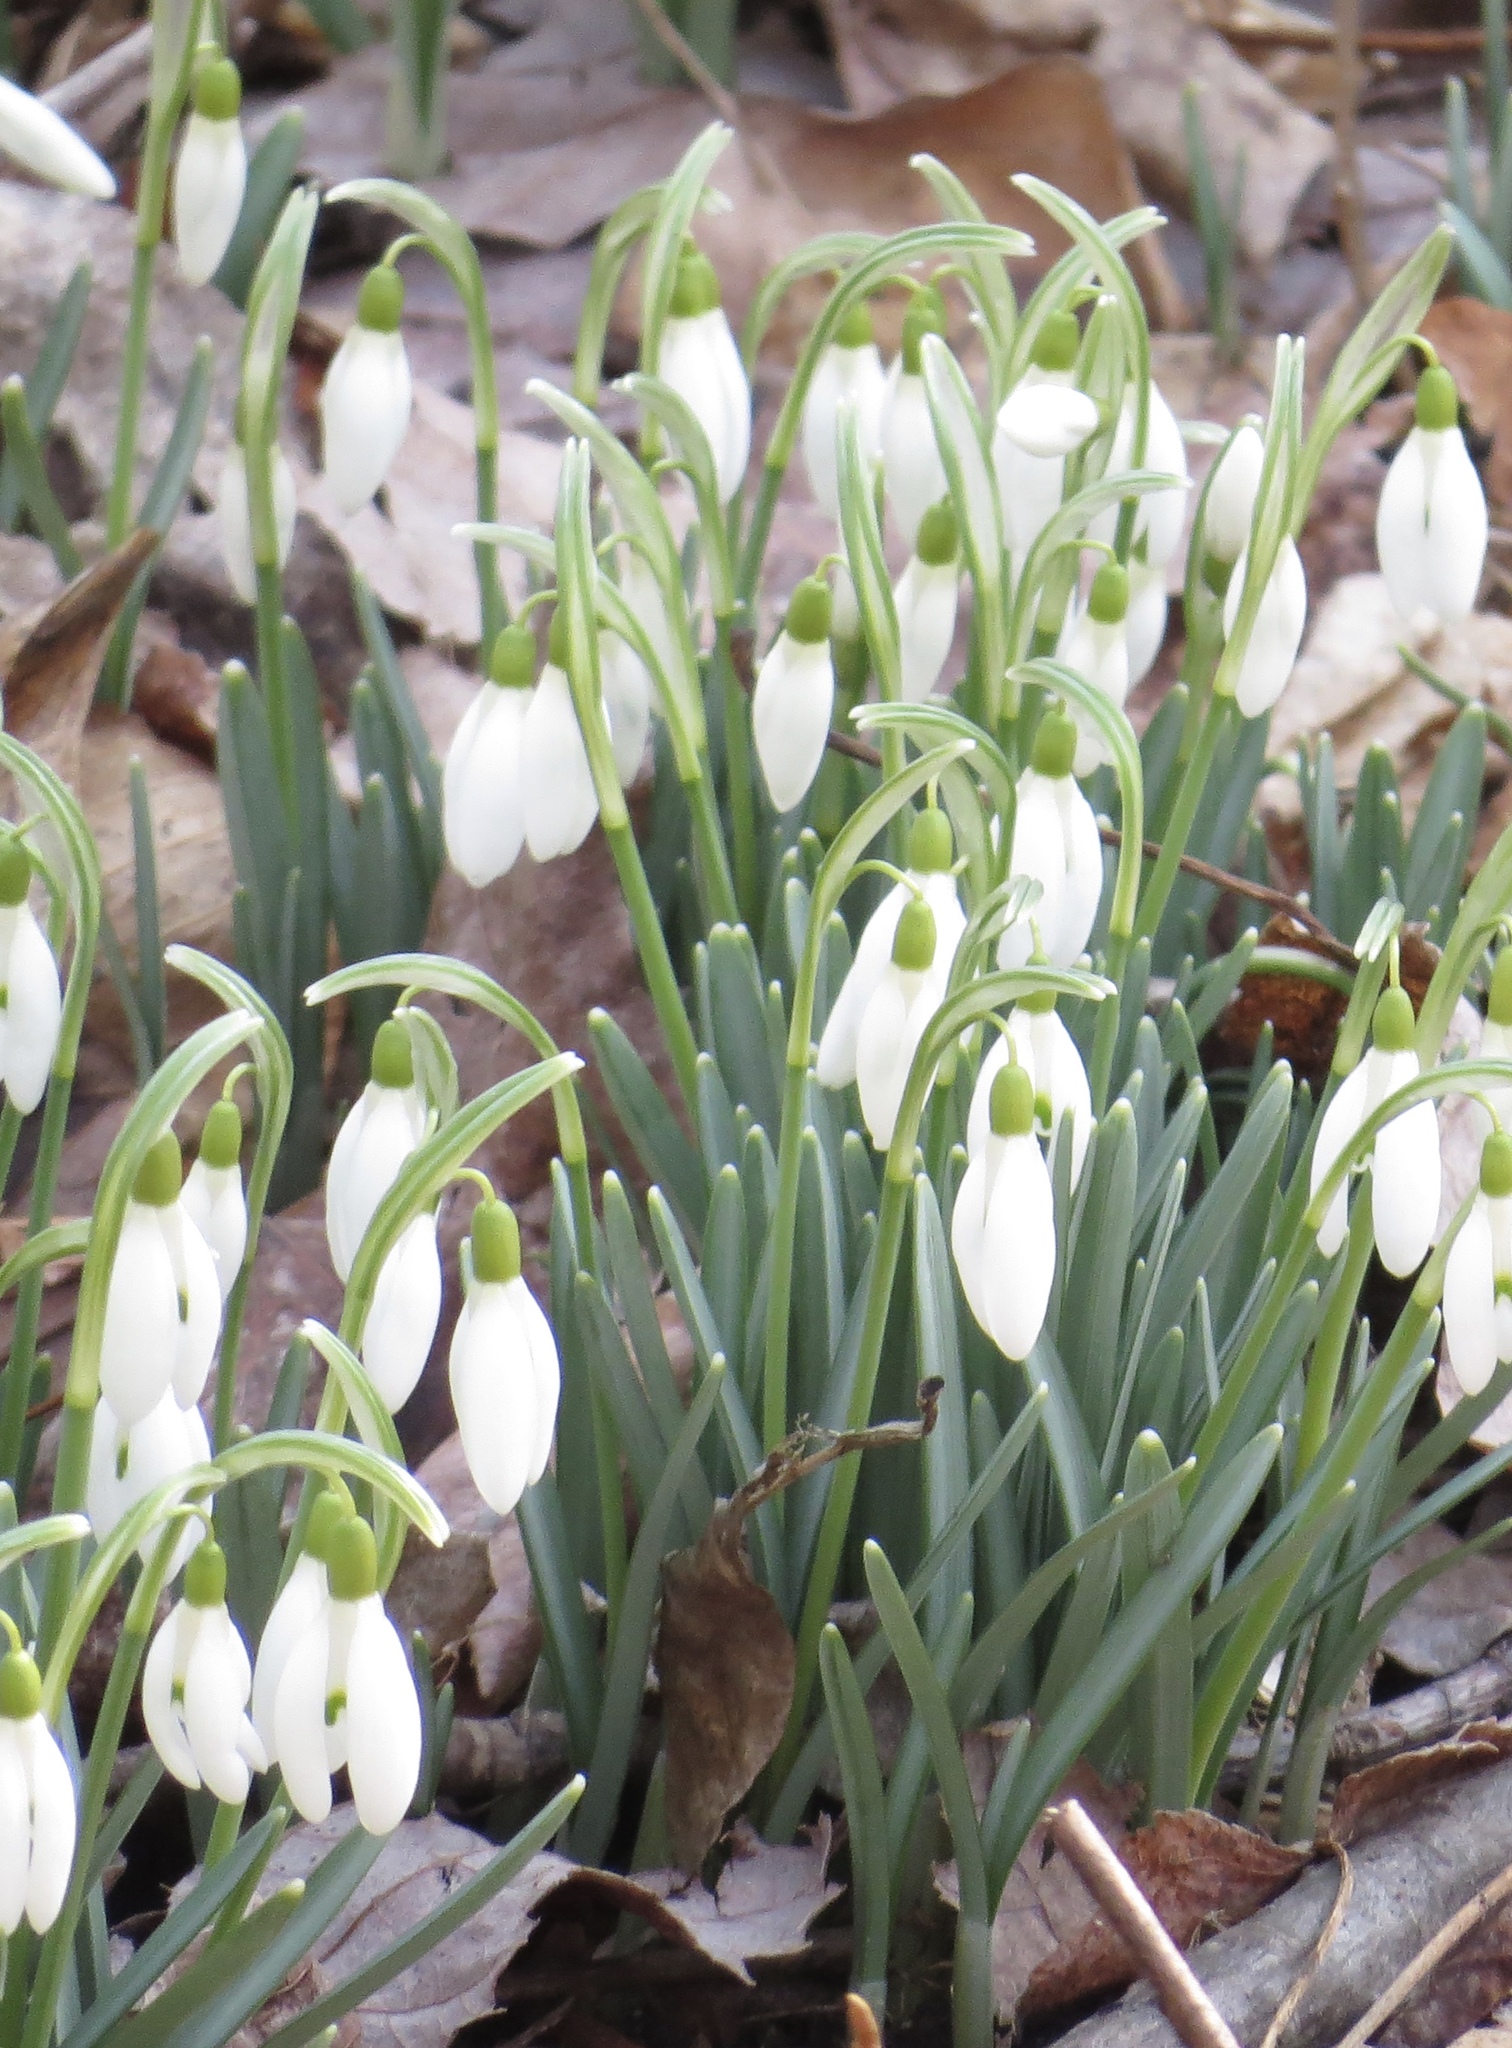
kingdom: Plantae
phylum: Tracheophyta
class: Liliopsida
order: Asparagales
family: Amaryllidaceae
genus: Galanthus
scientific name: Galanthus nivalis
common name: Snowdrop
